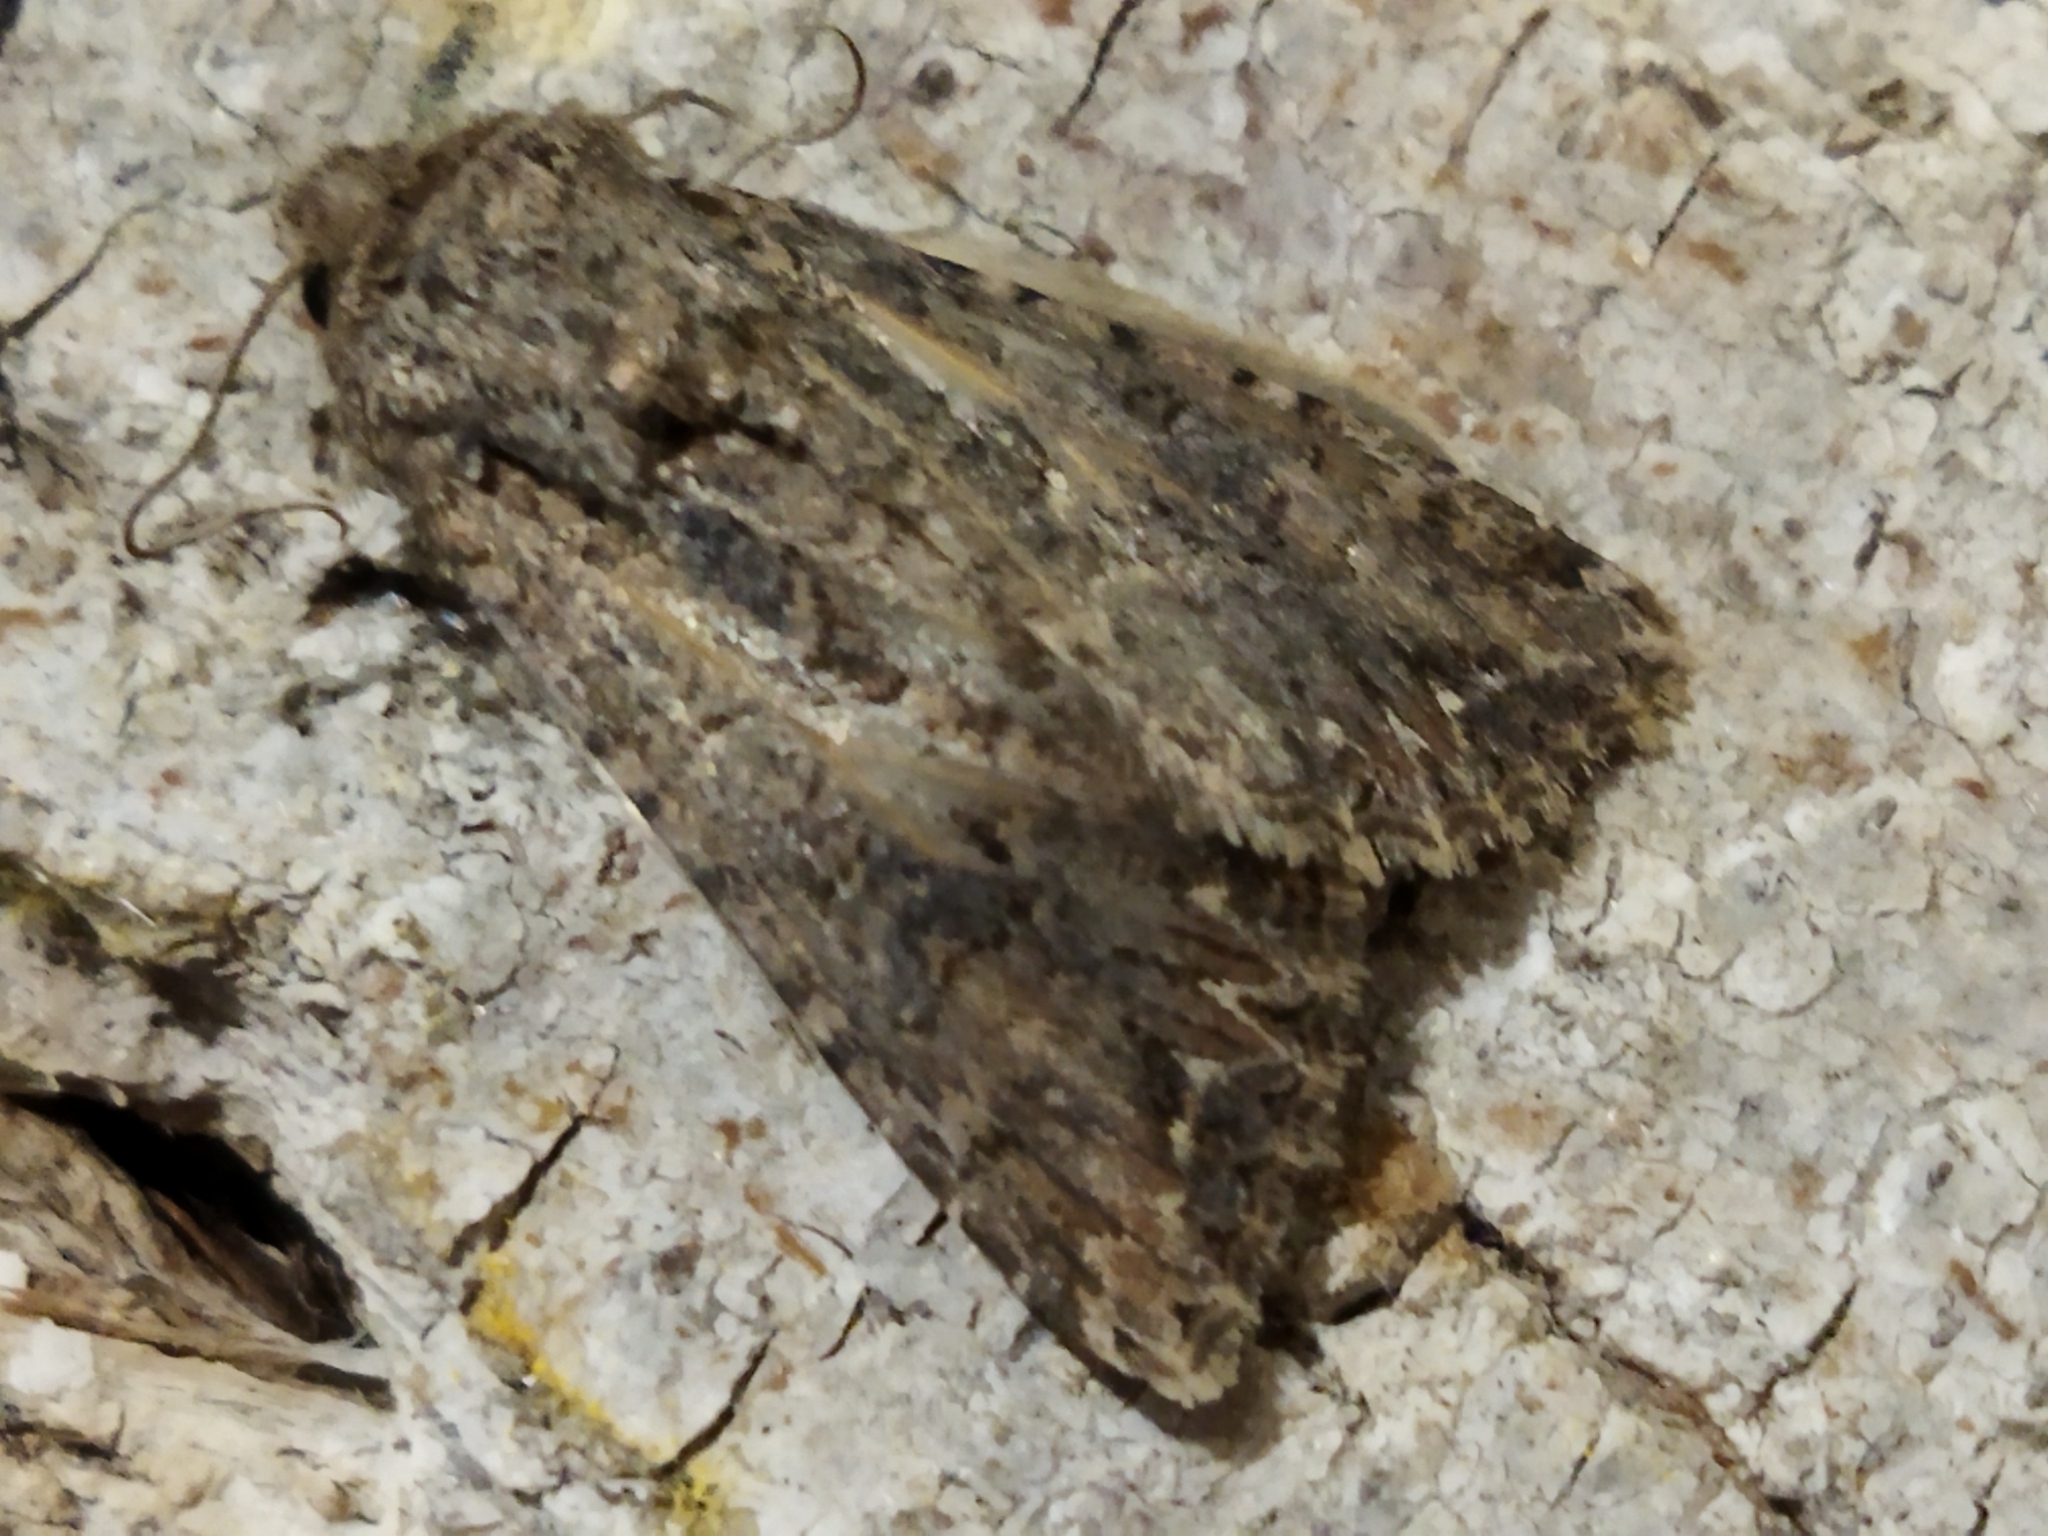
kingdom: Animalia
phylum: Arthropoda
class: Insecta
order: Lepidoptera
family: Noctuidae
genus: Anarta
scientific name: Anarta trifolii
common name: Clover cutworm moth
